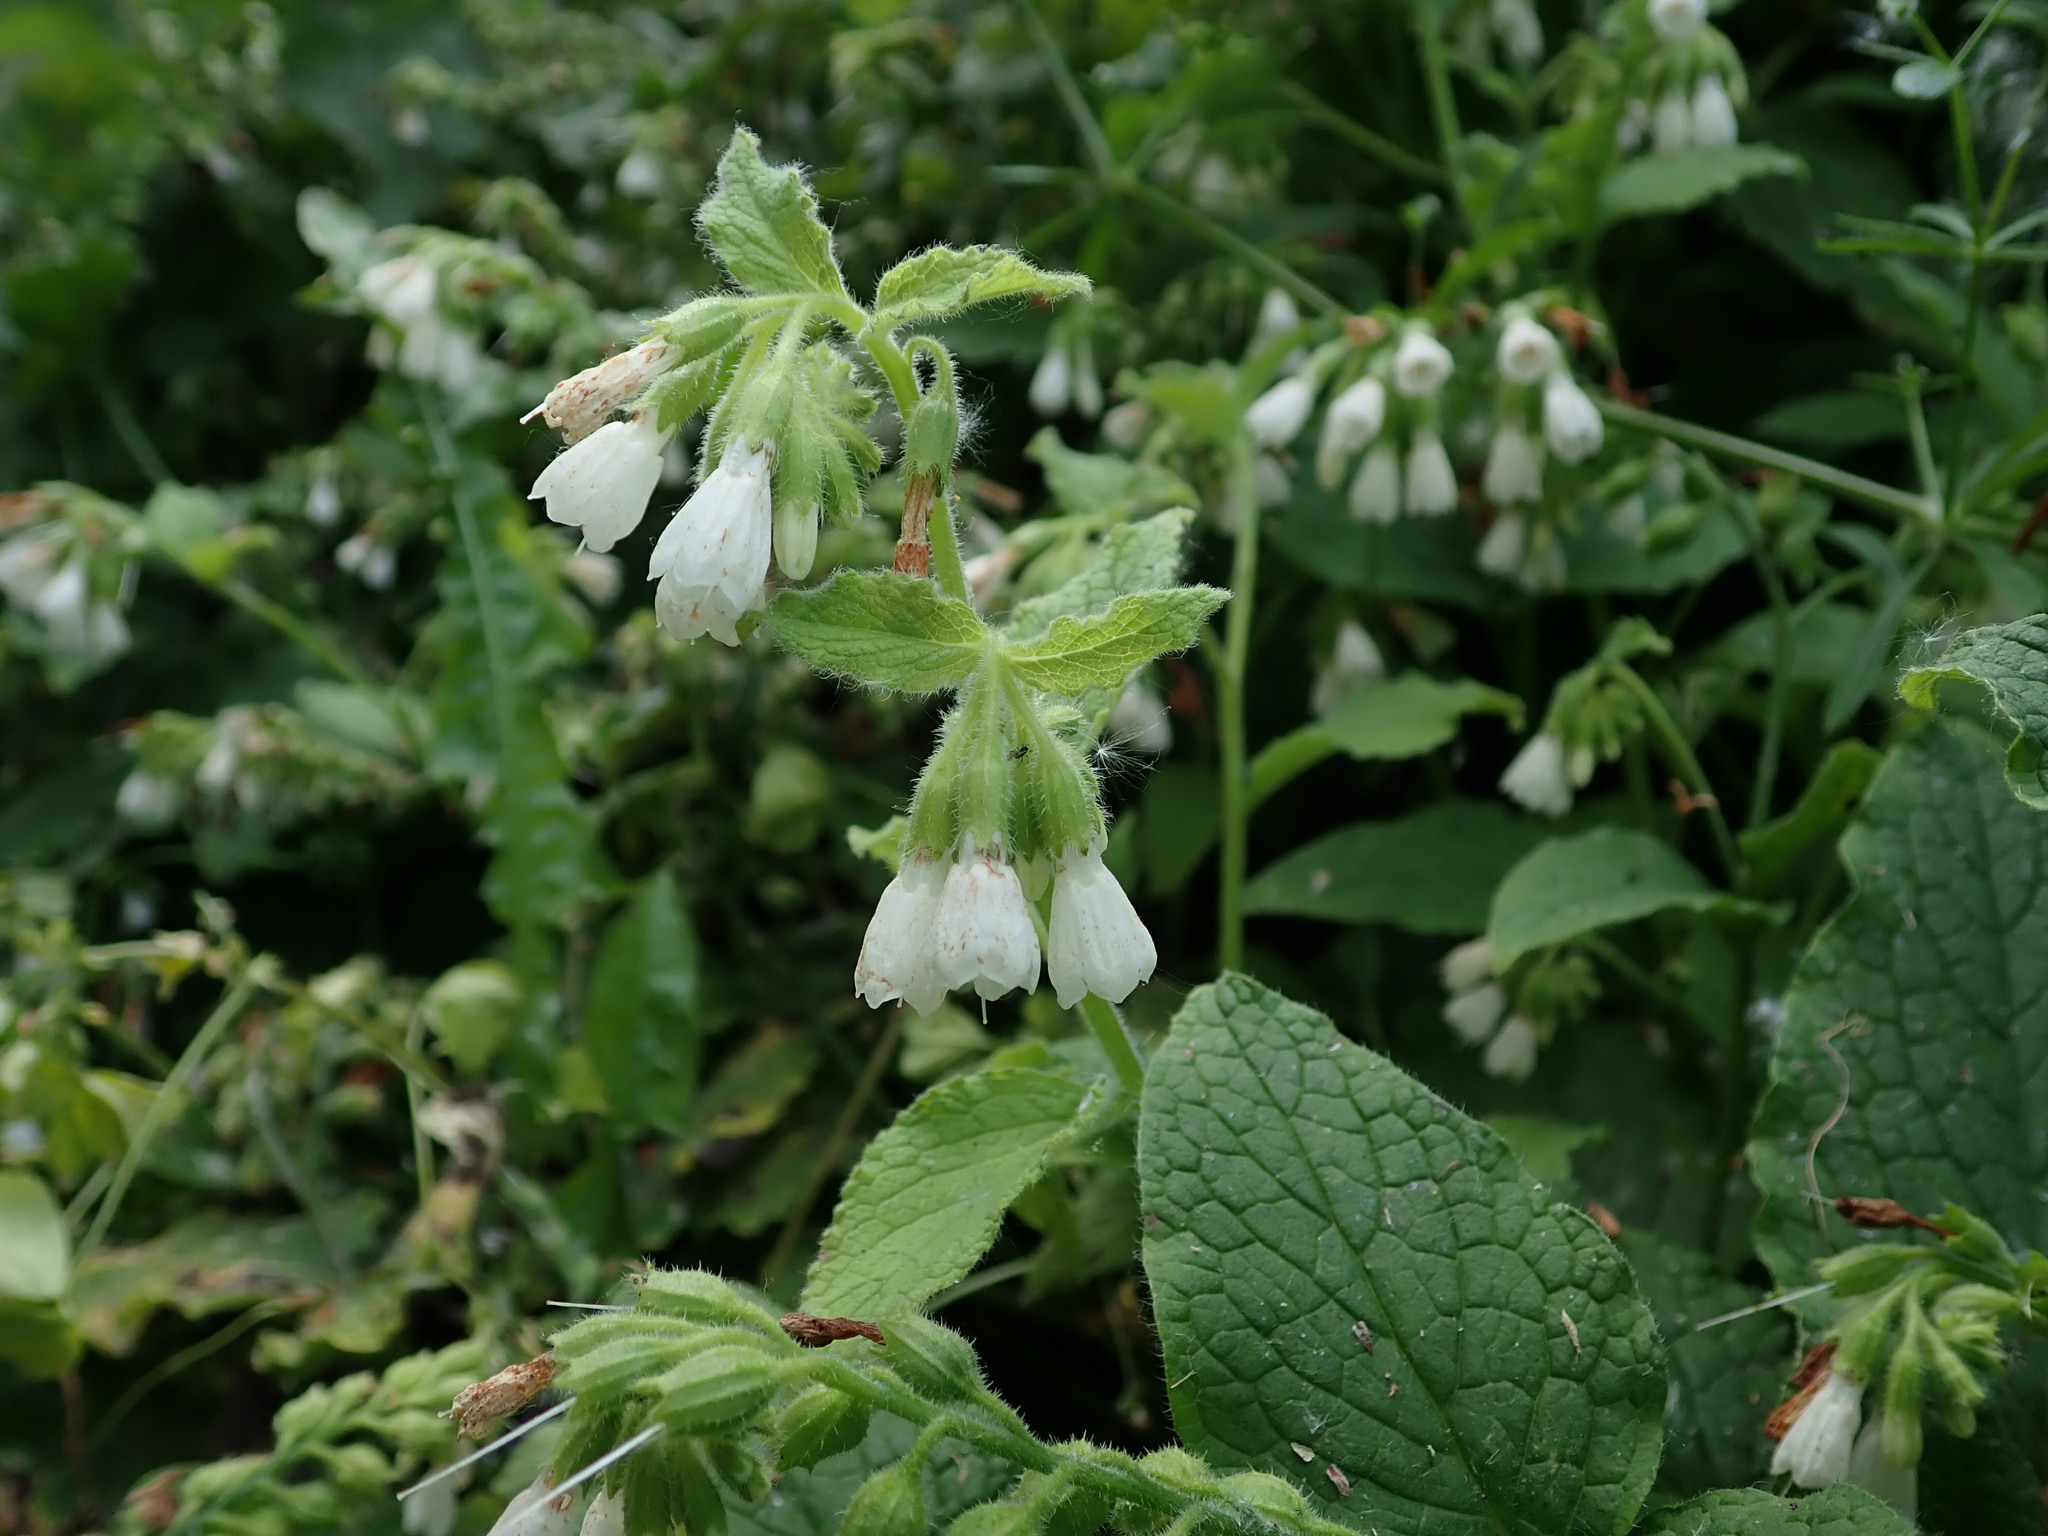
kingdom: Plantae
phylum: Tracheophyta
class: Magnoliopsida
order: Boraginales
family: Boraginaceae
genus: Symphytum
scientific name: Symphytum orientale
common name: White comfrey
